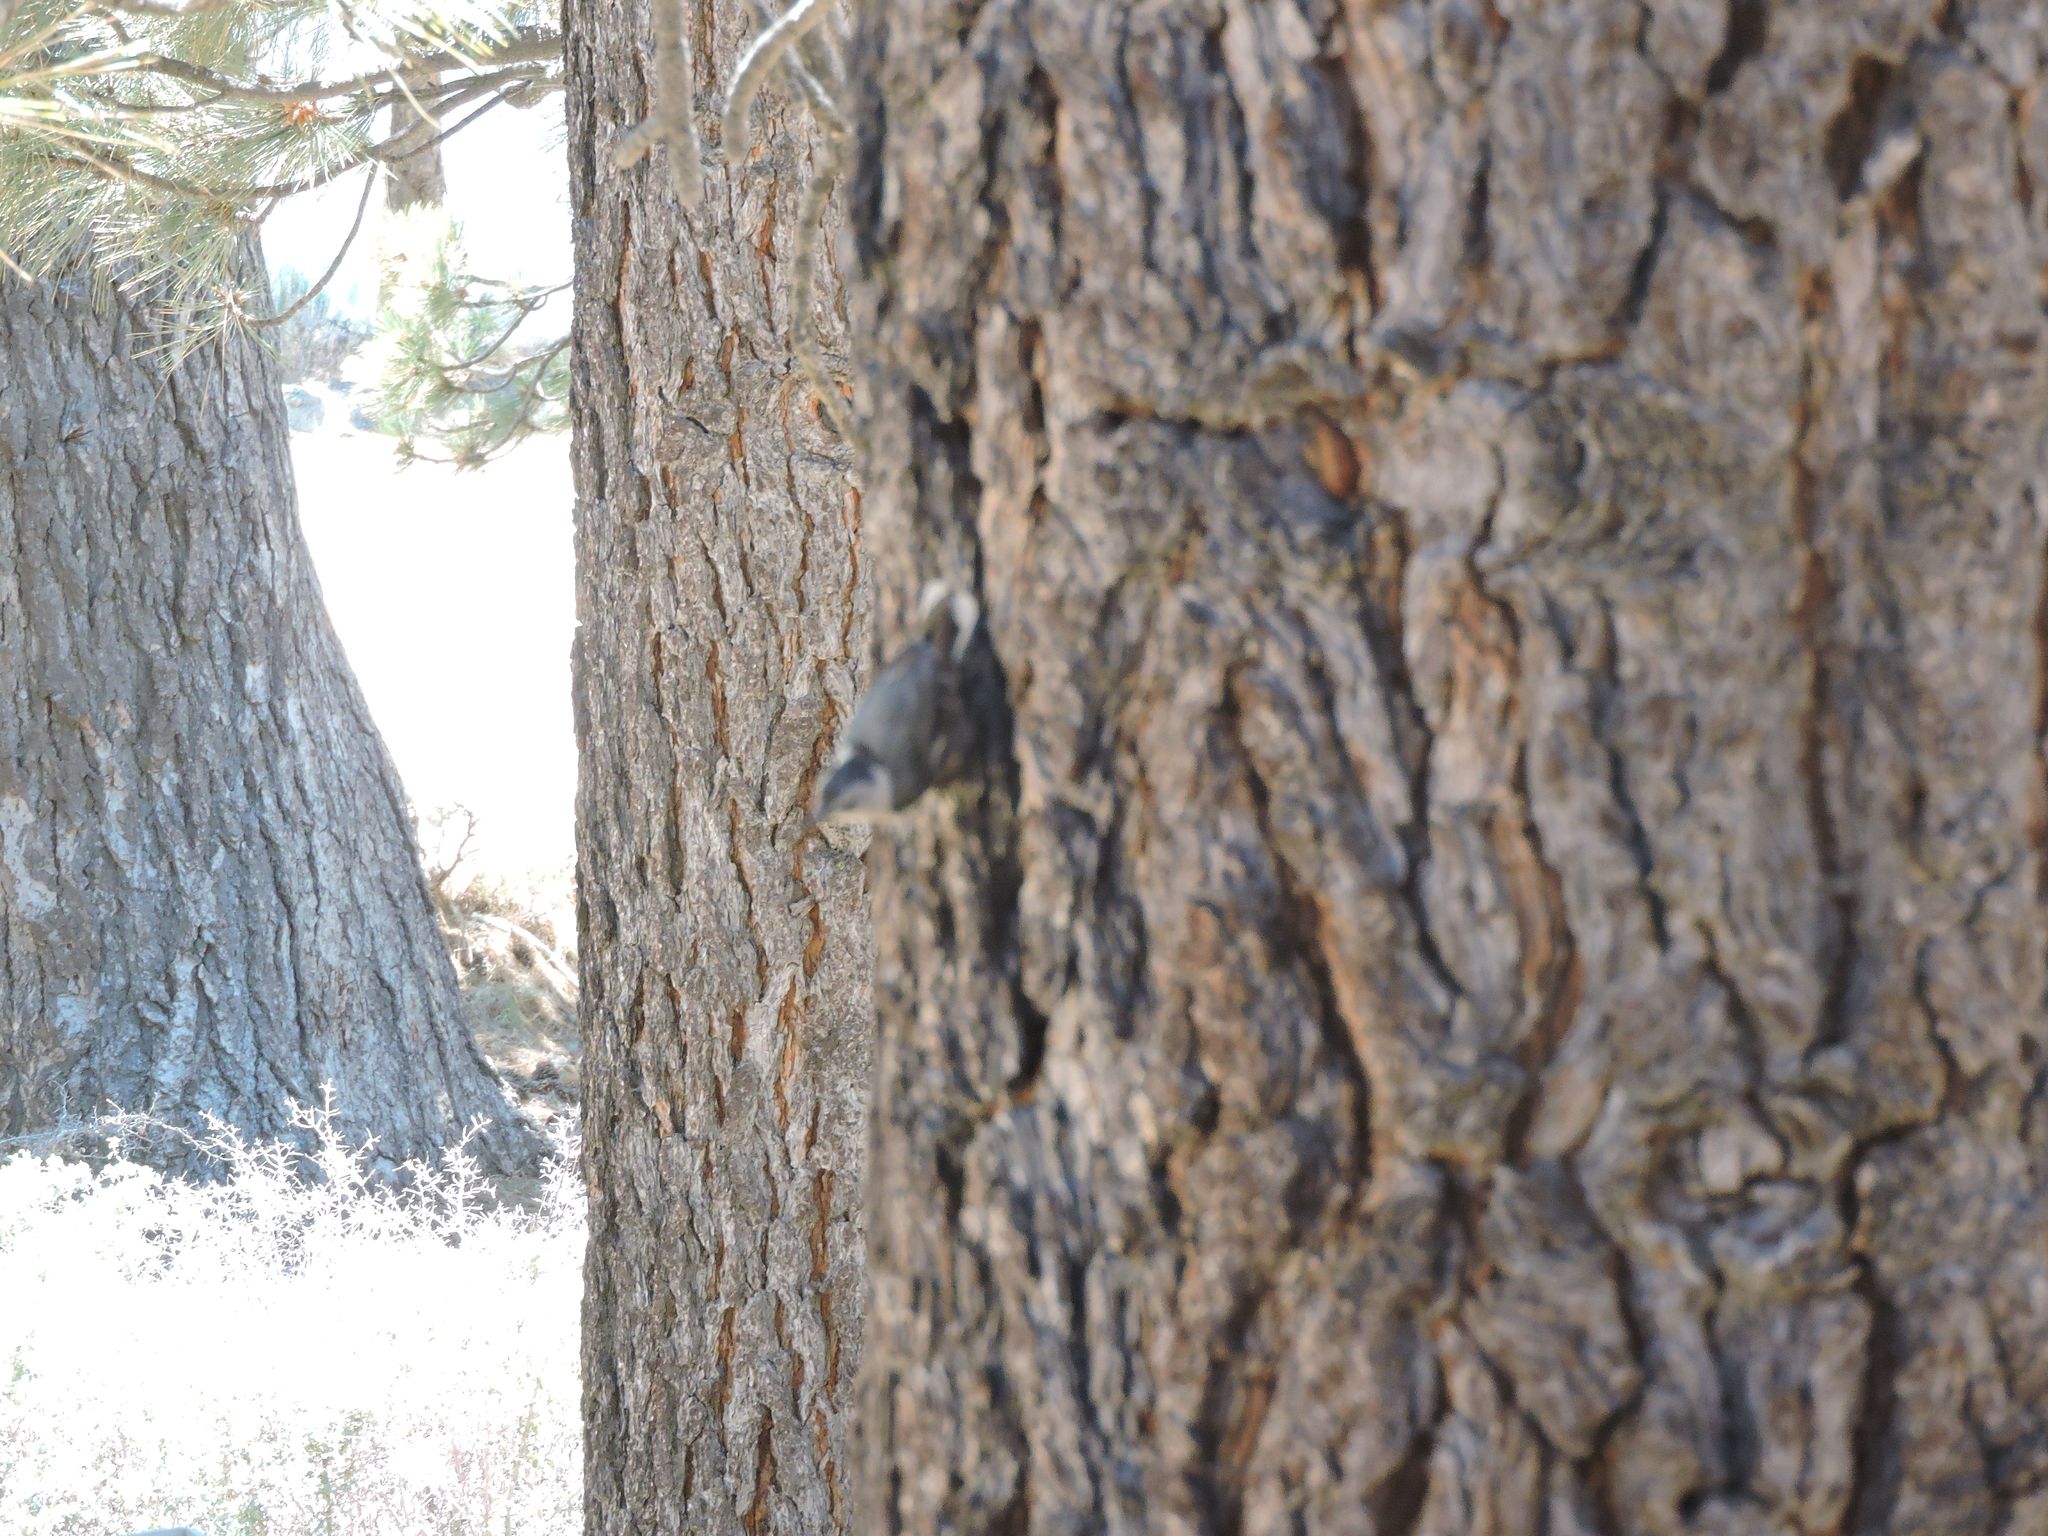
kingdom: Animalia
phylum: Chordata
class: Aves
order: Passeriformes
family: Sittidae
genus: Sitta
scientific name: Sitta carolinensis
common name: White-breasted nuthatch
